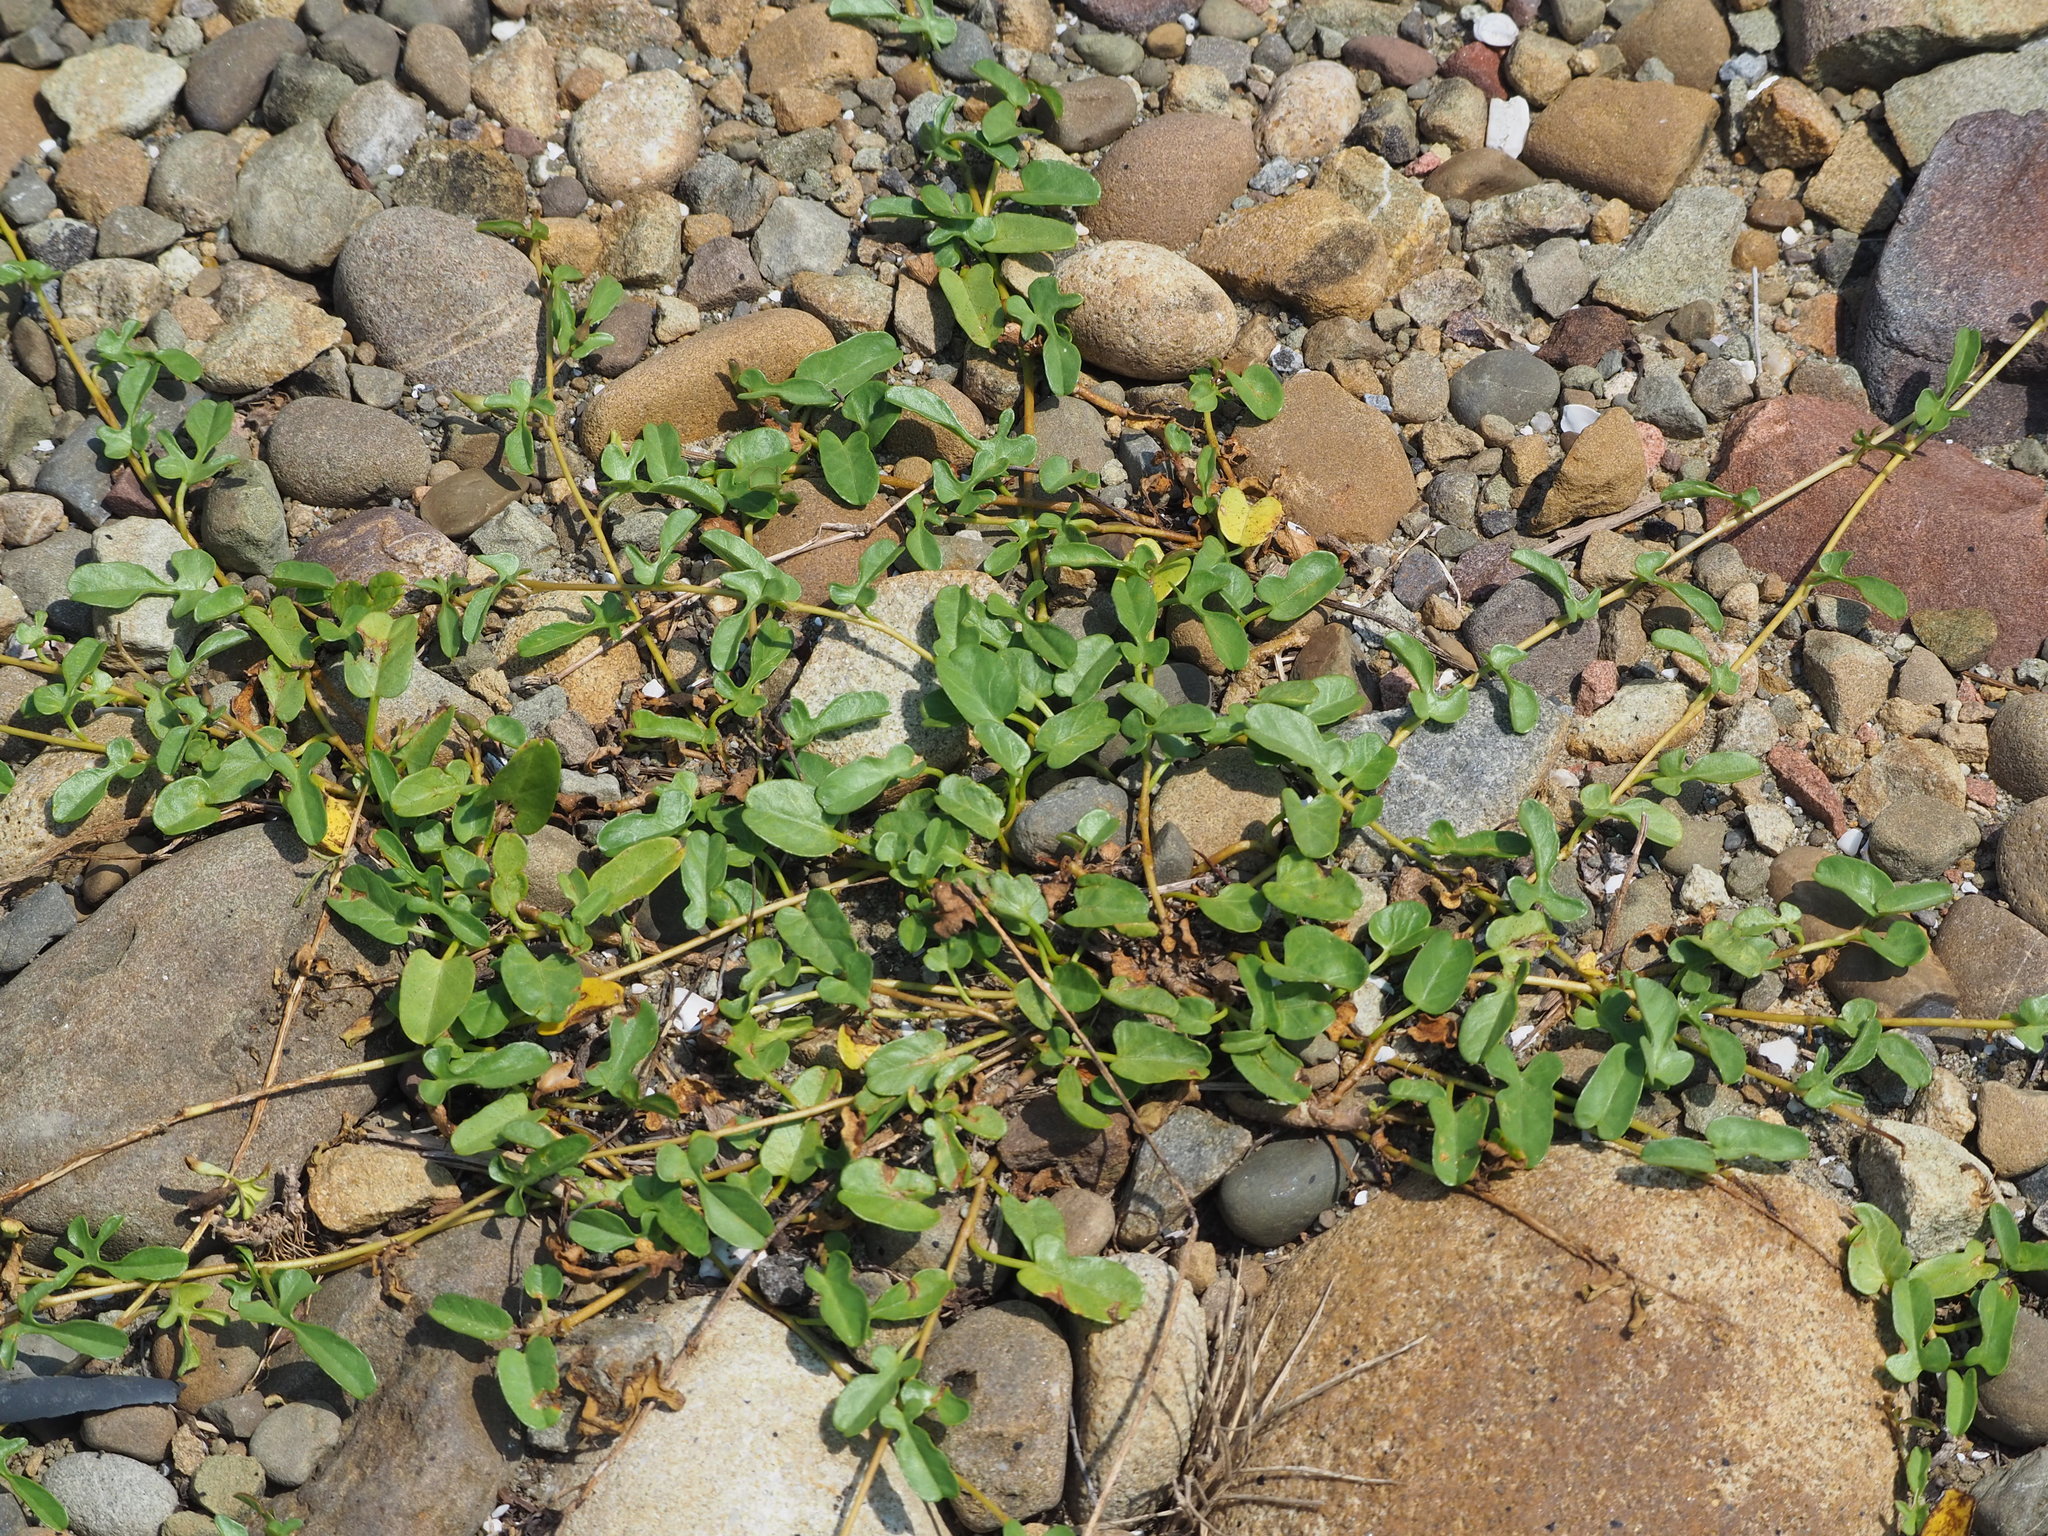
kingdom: Plantae
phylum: Tracheophyta
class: Magnoliopsida
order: Solanales
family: Convolvulaceae
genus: Ipomoea
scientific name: Ipomoea imperati
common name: Fiddle-leaf morning-glory
